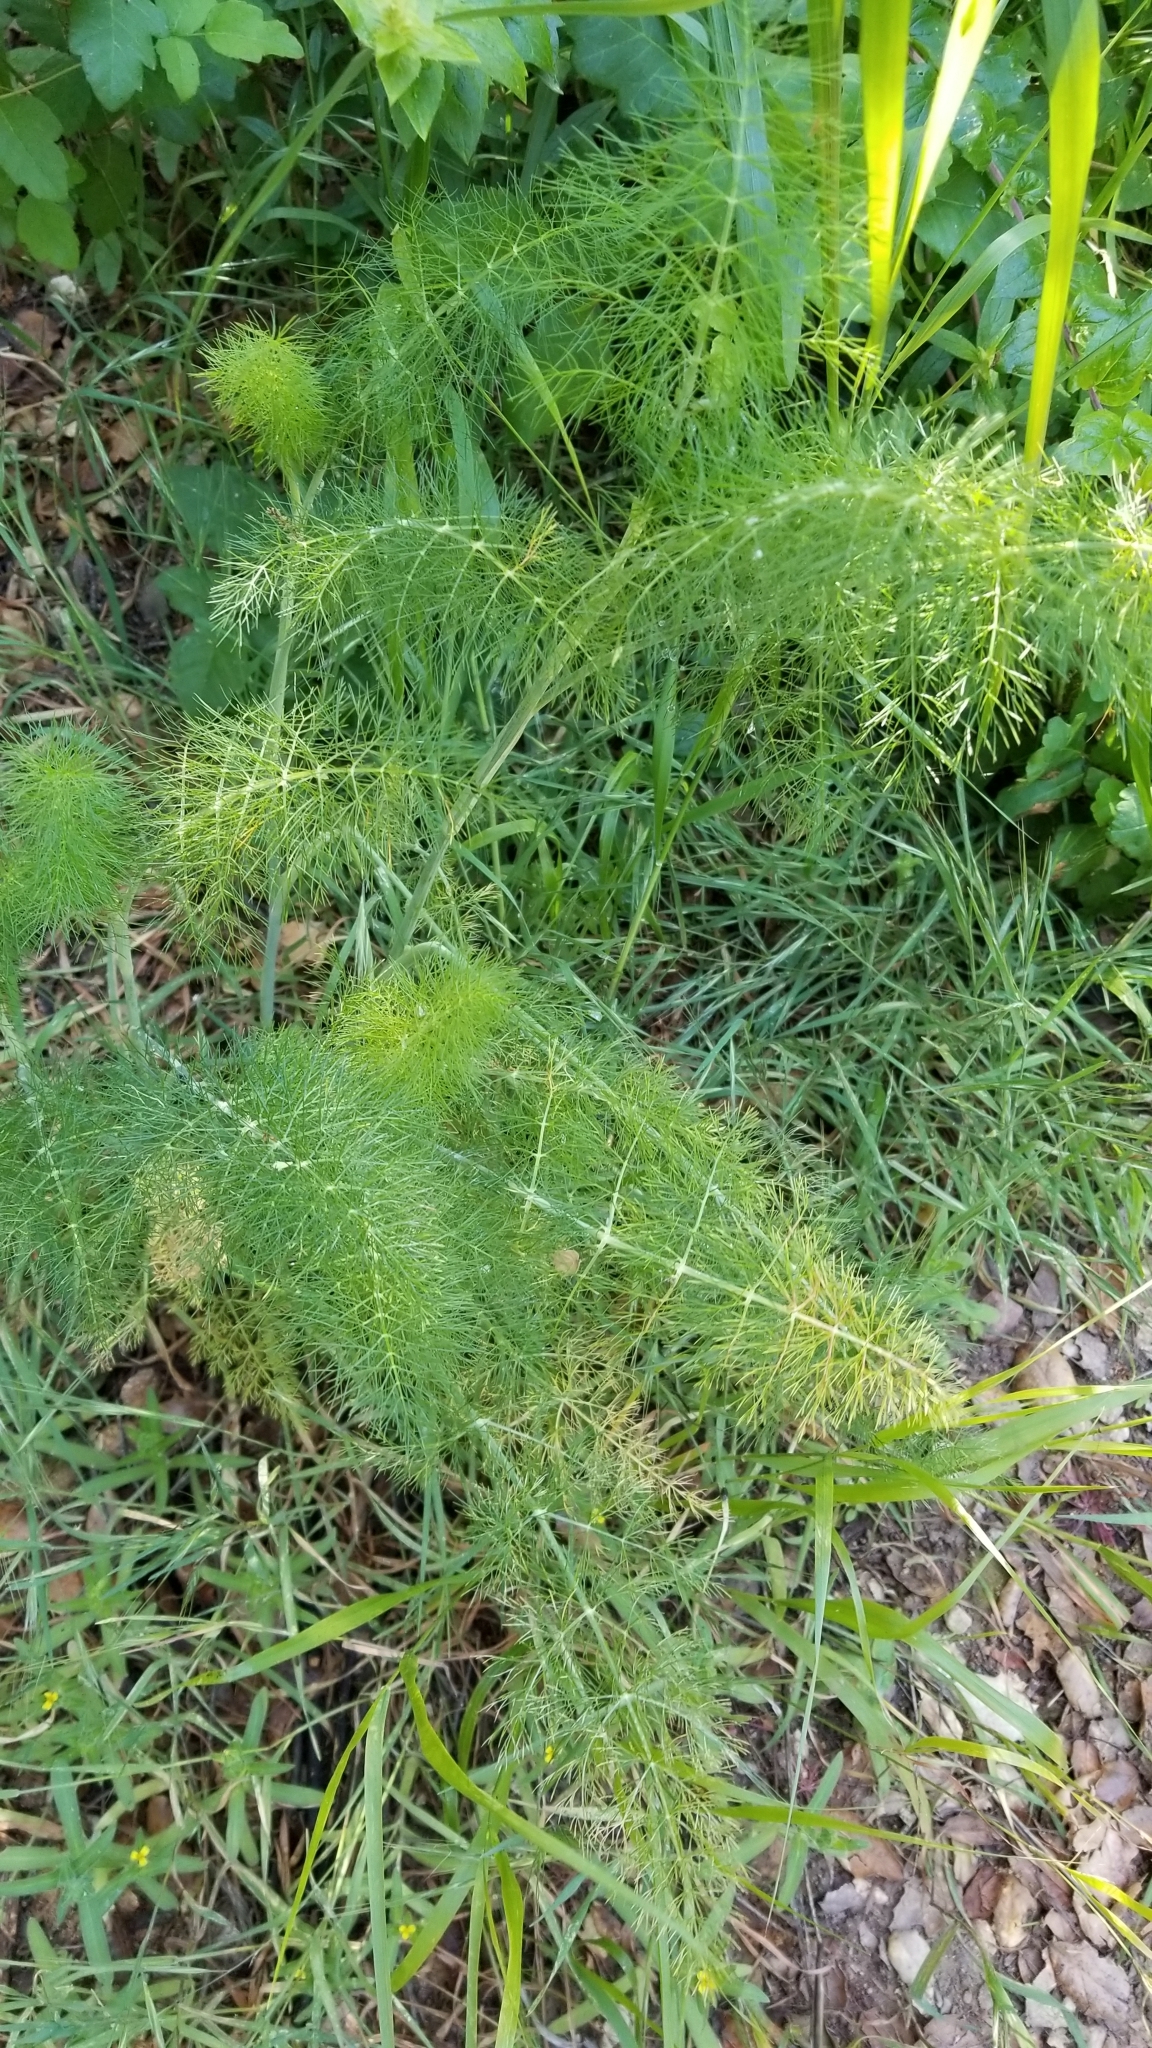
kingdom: Plantae
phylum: Tracheophyta
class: Magnoliopsida
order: Apiales
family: Apiaceae
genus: Foeniculum
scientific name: Foeniculum vulgare
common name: Fennel
